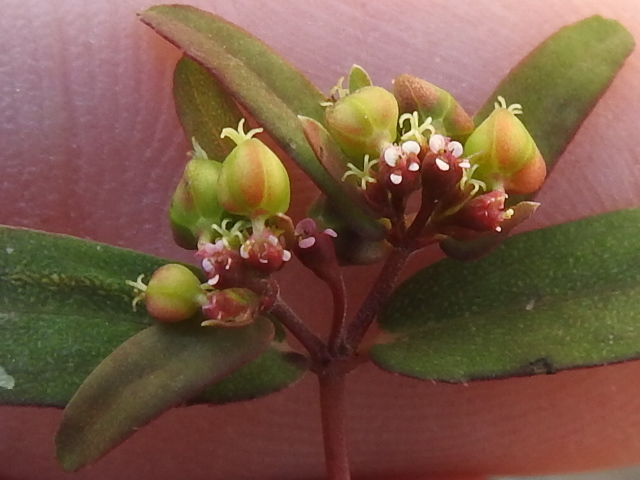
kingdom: Plantae
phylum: Tracheophyta
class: Magnoliopsida
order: Malpighiales
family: Euphorbiaceae
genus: Euphorbia
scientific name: Euphorbia nutans
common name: Eyebane
